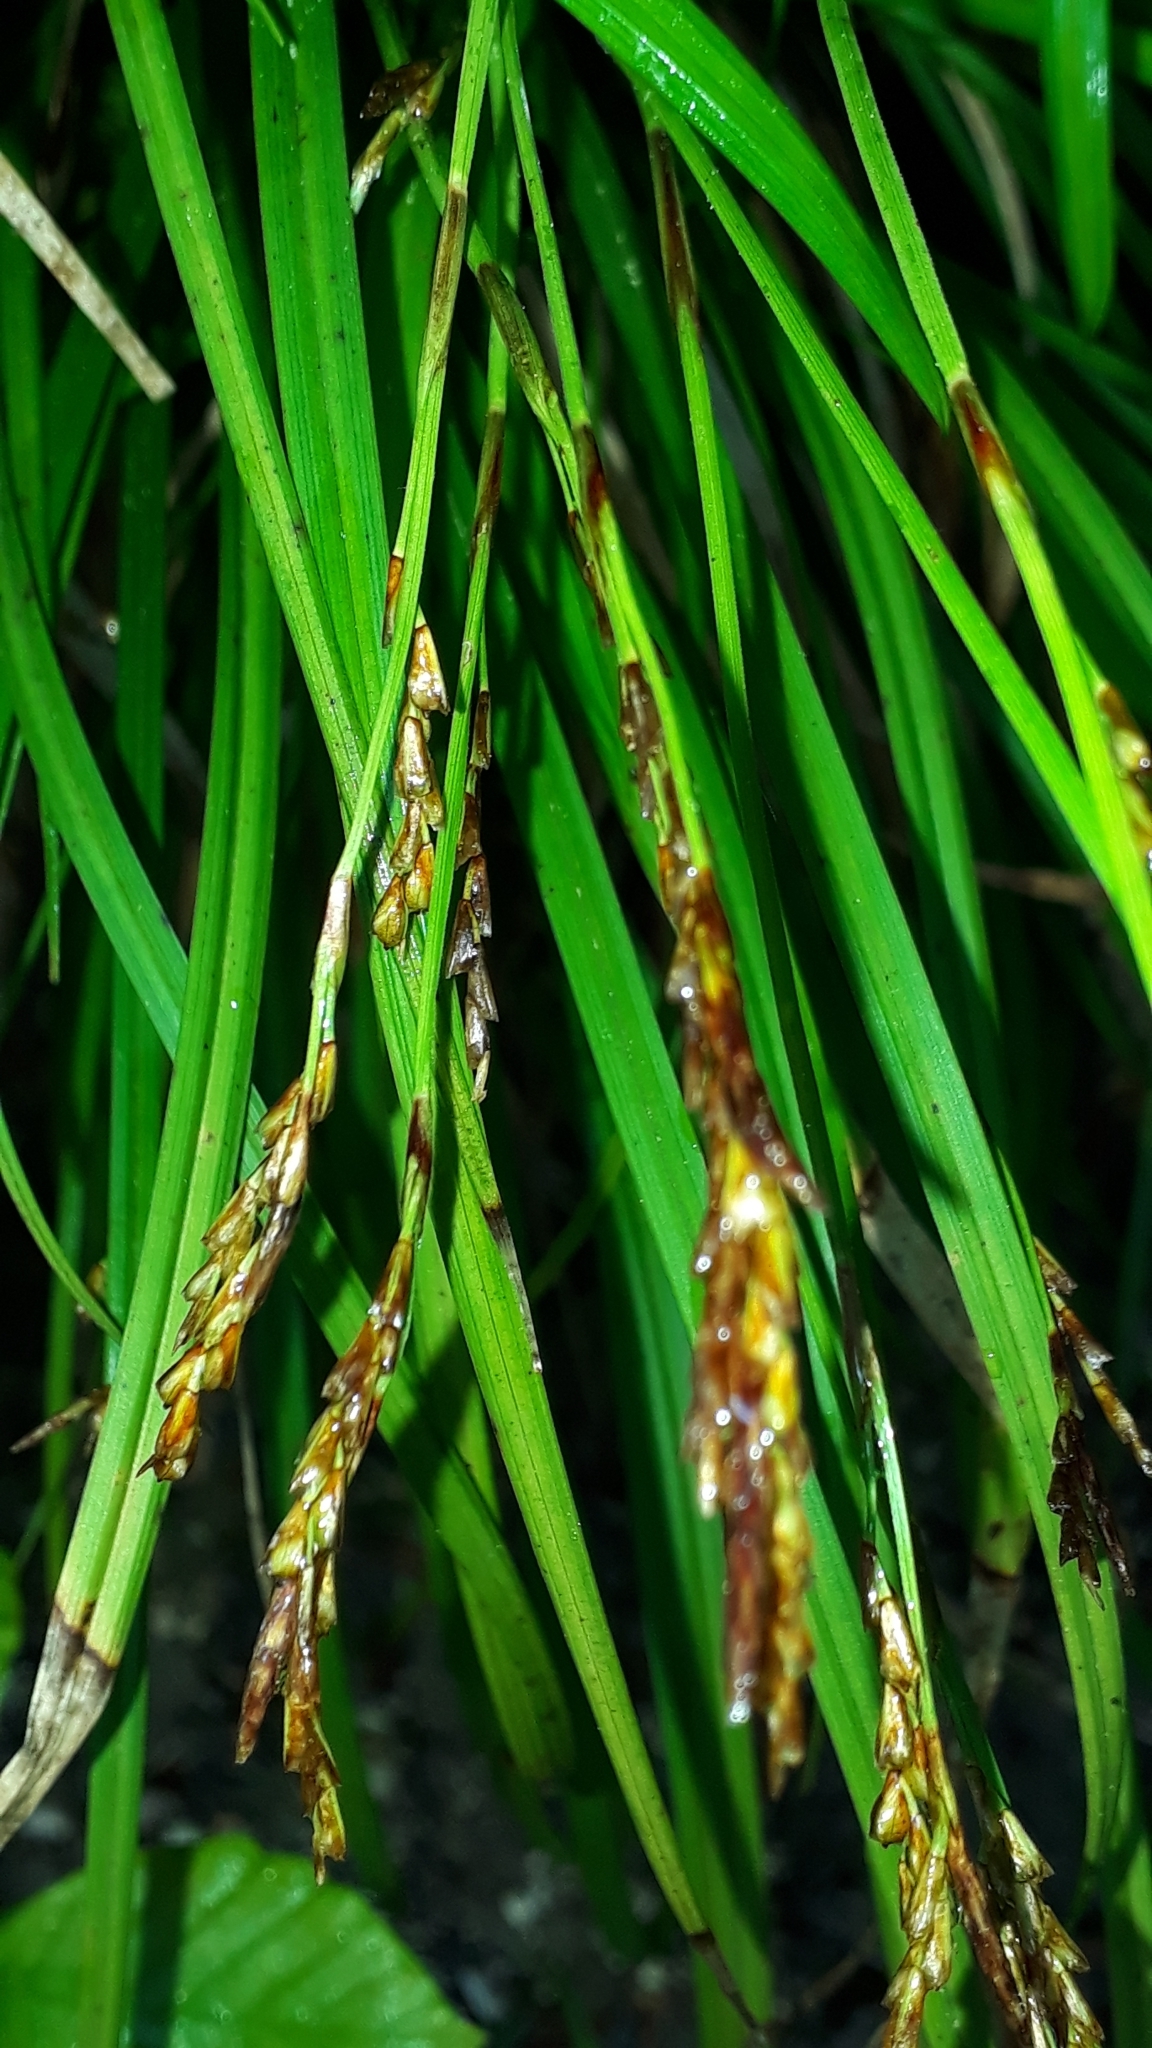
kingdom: Plantae
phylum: Tracheophyta
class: Liliopsida
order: Poales
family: Cyperaceae
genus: Carex
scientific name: Carex digitata
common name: Fingered sedge
